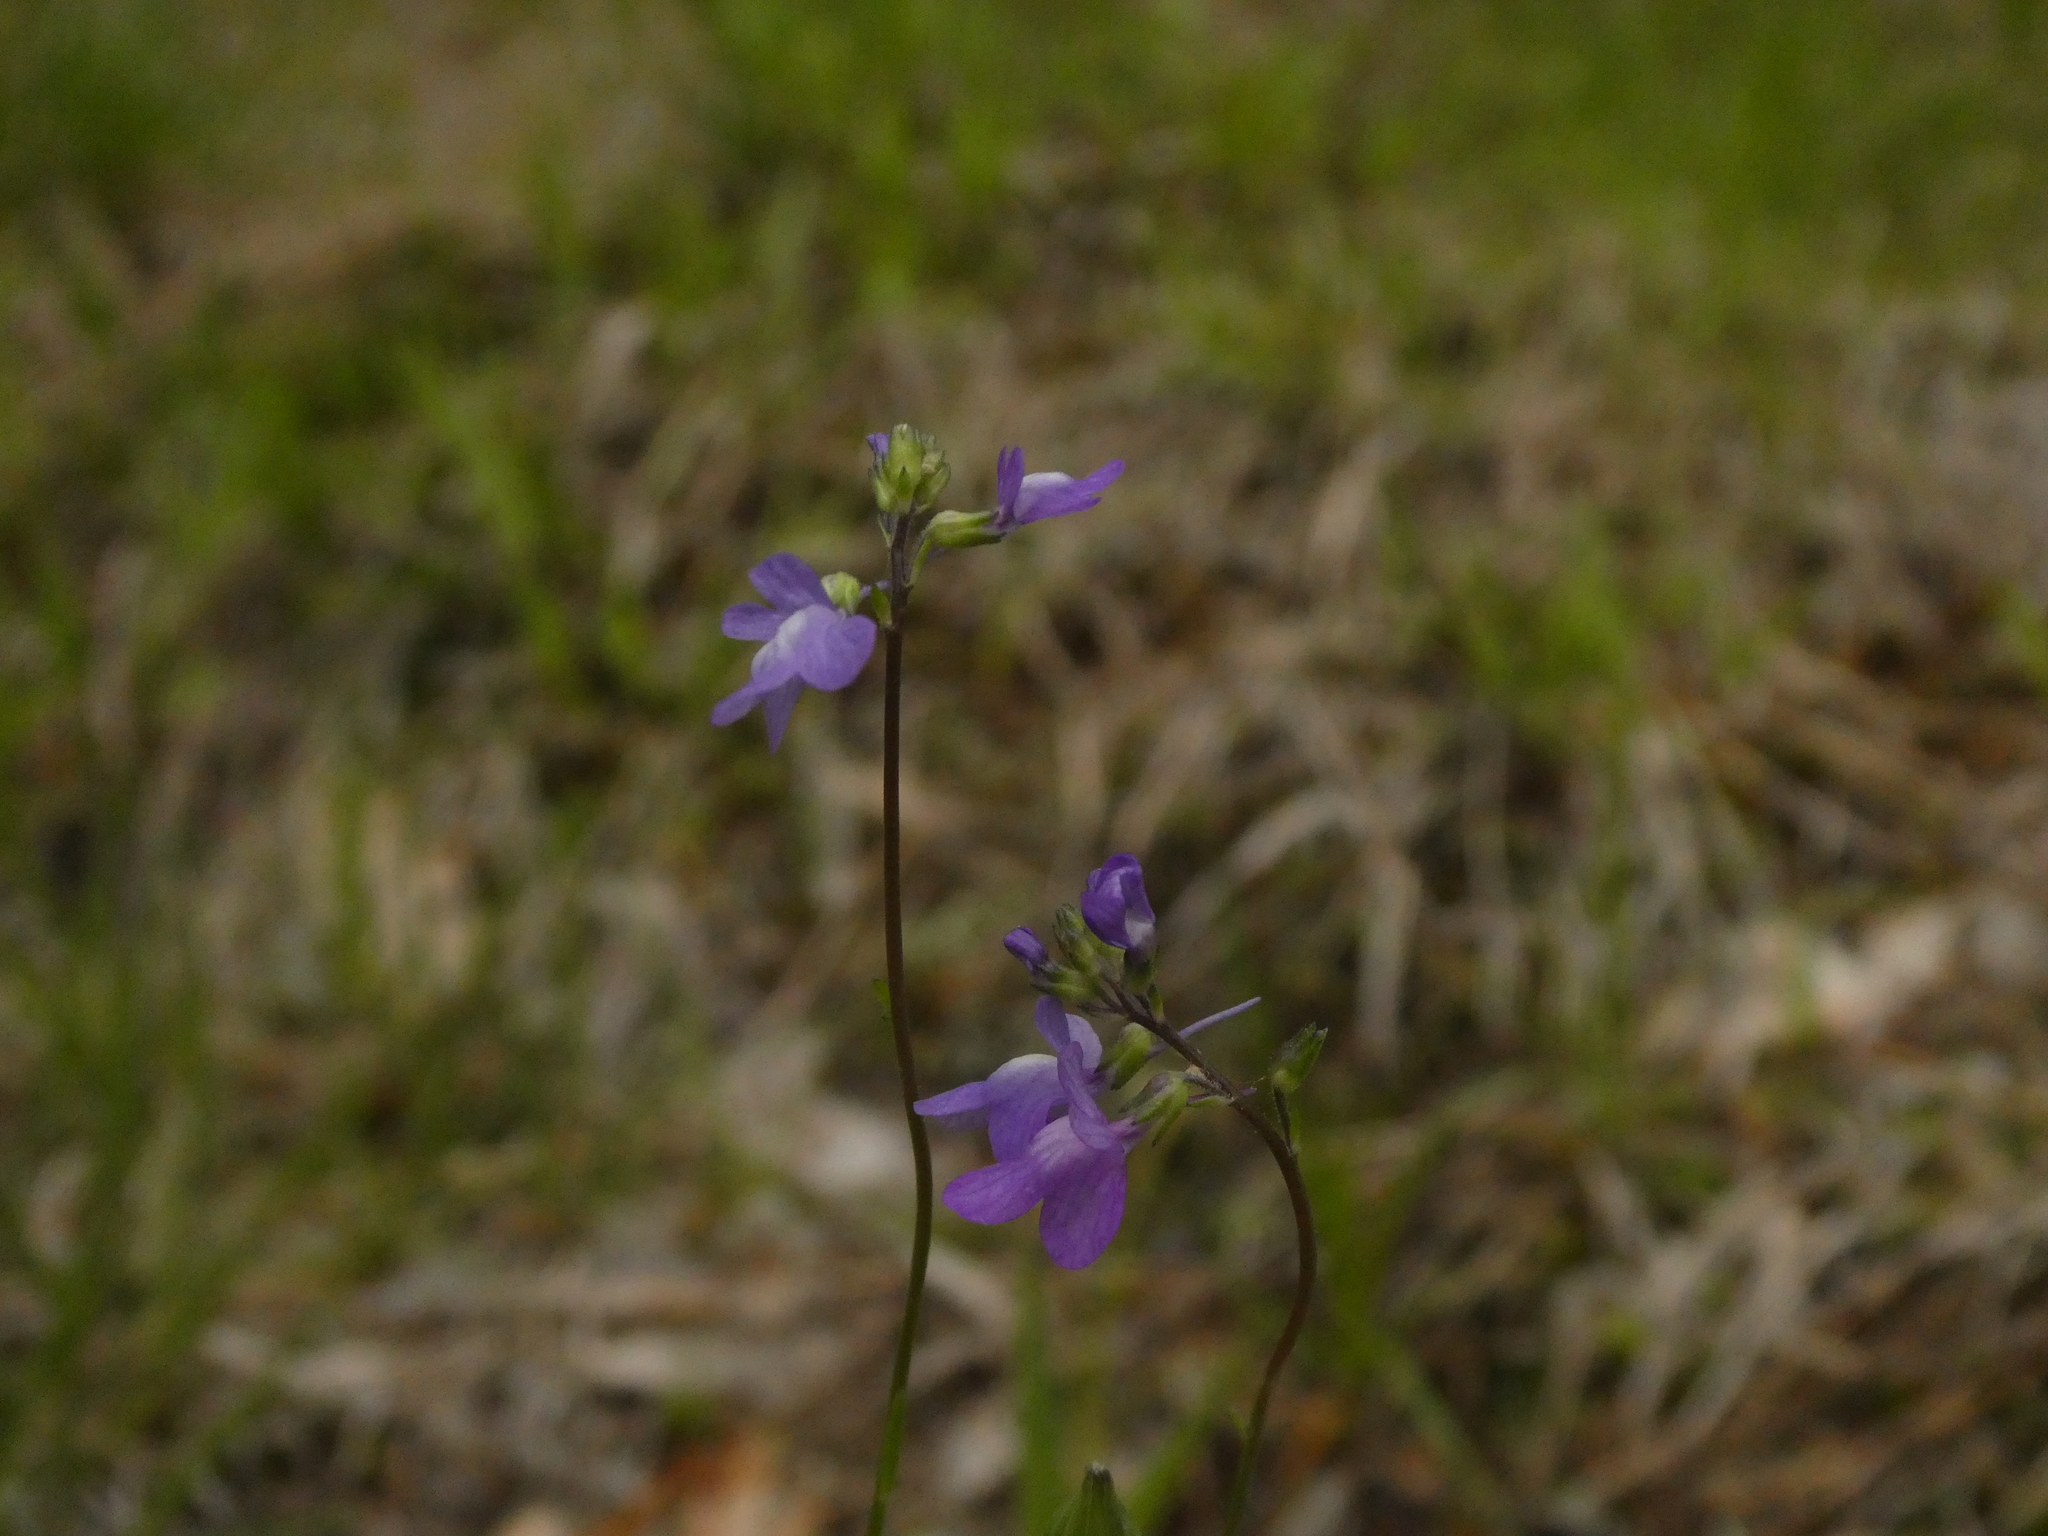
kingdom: Plantae
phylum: Tracheophyta
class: Magnoliopsida
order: Lamiales
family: Plantaginaceae
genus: Nuttallanthus
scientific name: Nuttallanthus canadensis
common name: Blue toadflax
